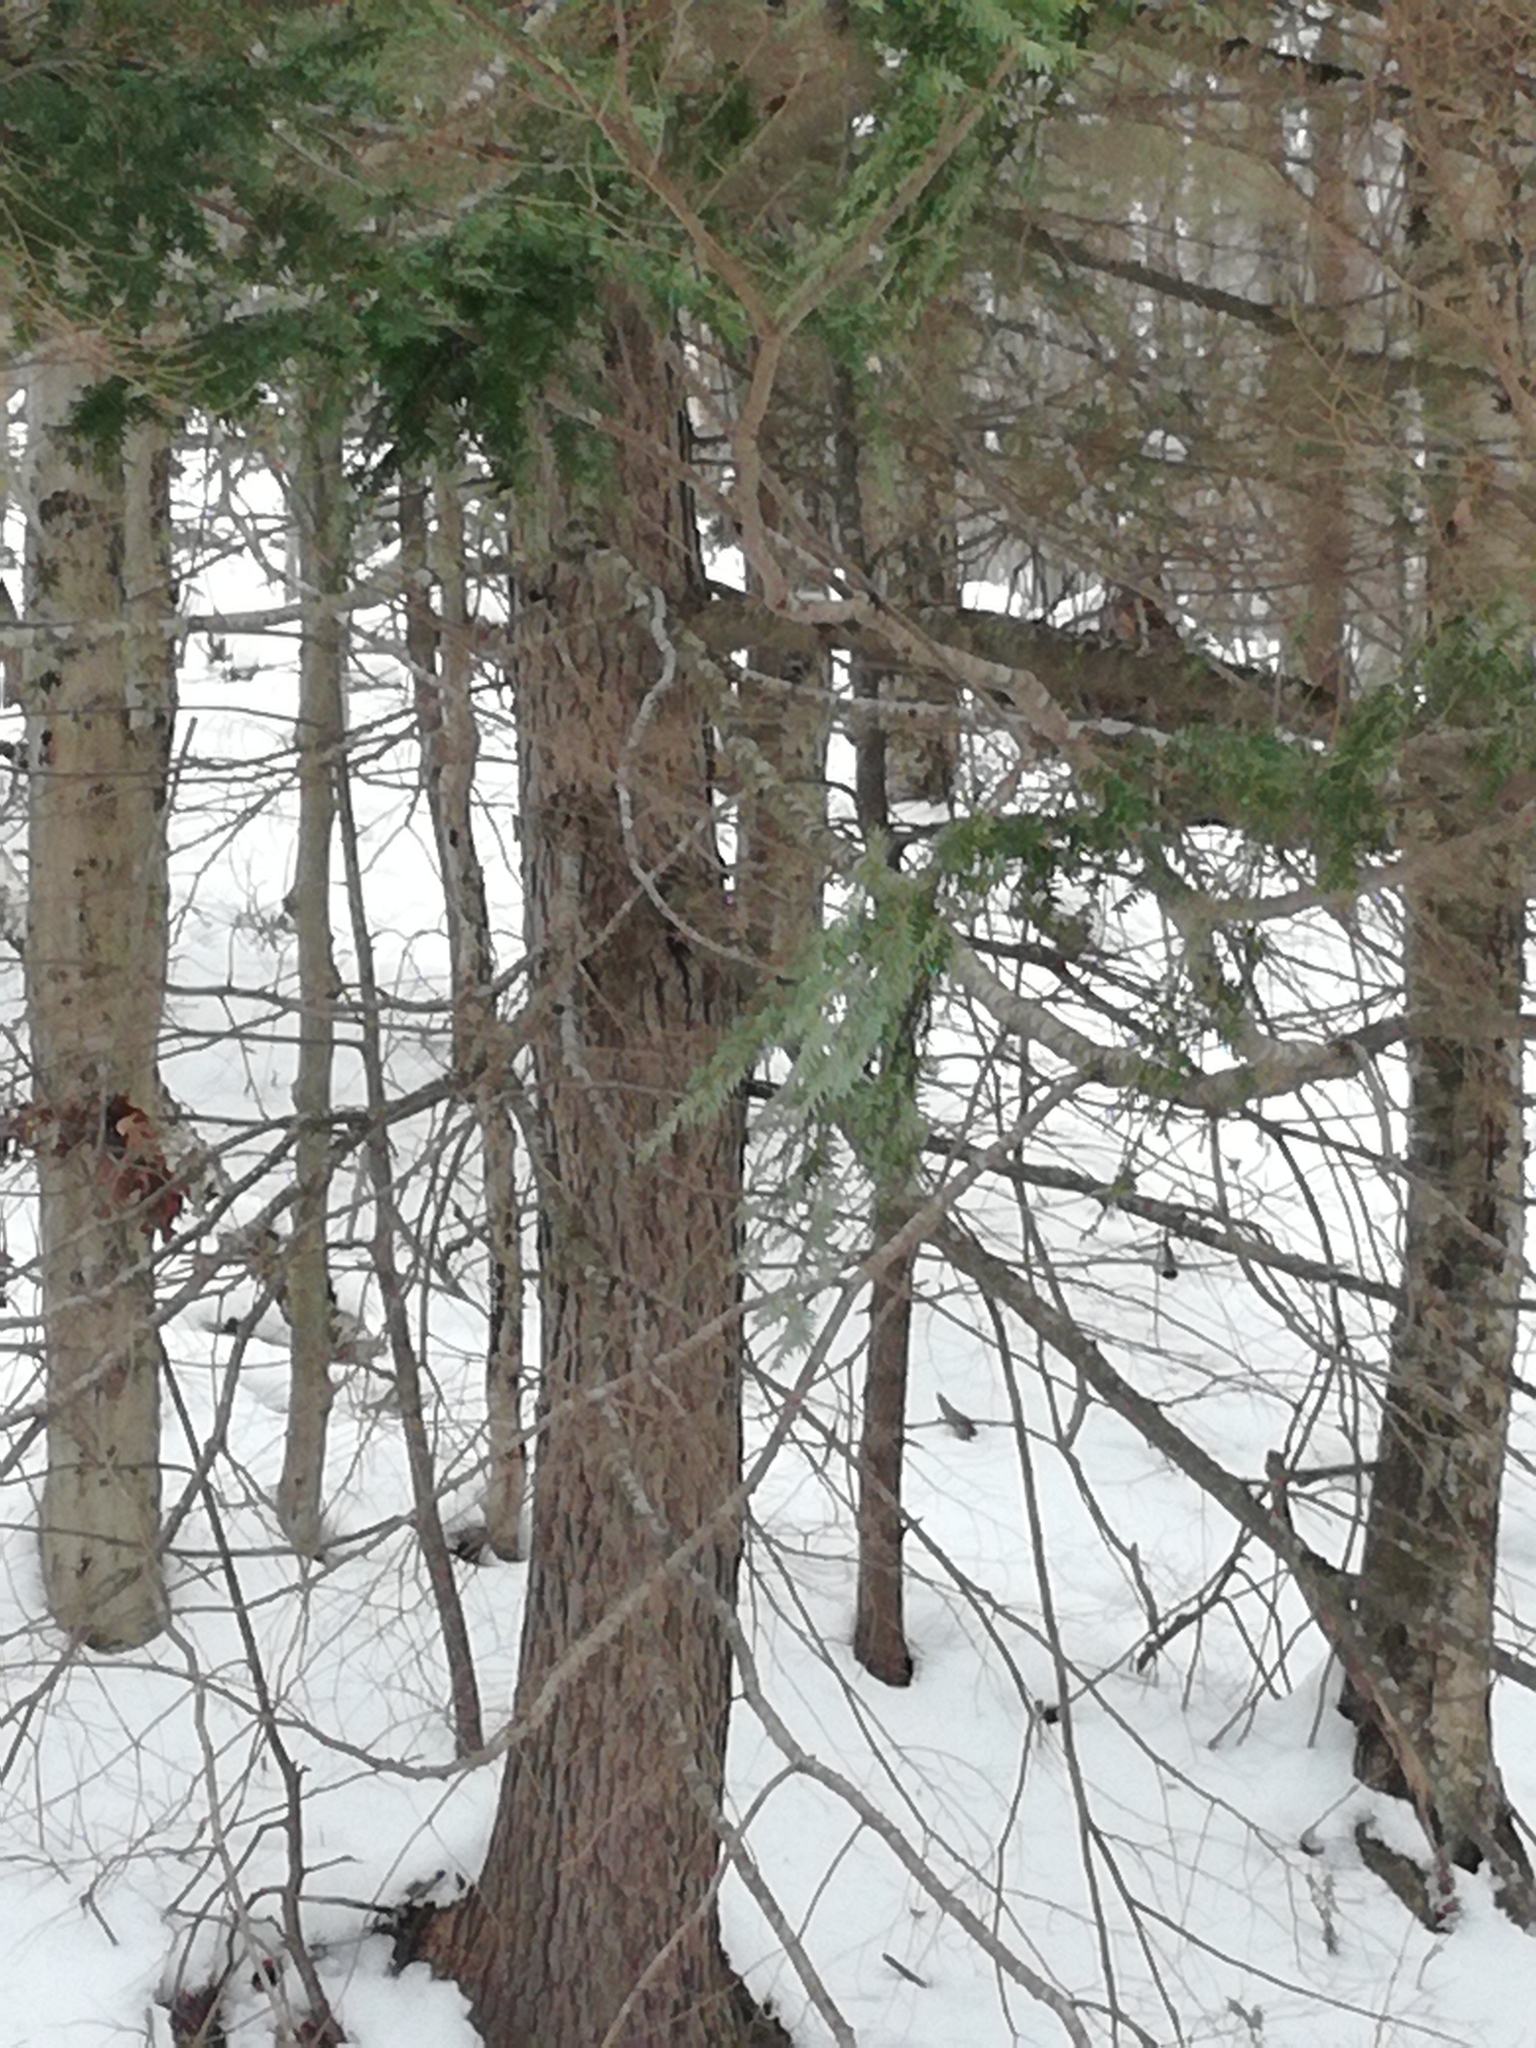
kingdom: Plantae
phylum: Tracheophyta
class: Pinopsida
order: Pinales
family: Pinaceae
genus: Tsuga
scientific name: Tsuga canadensis
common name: Eastern hemlock
